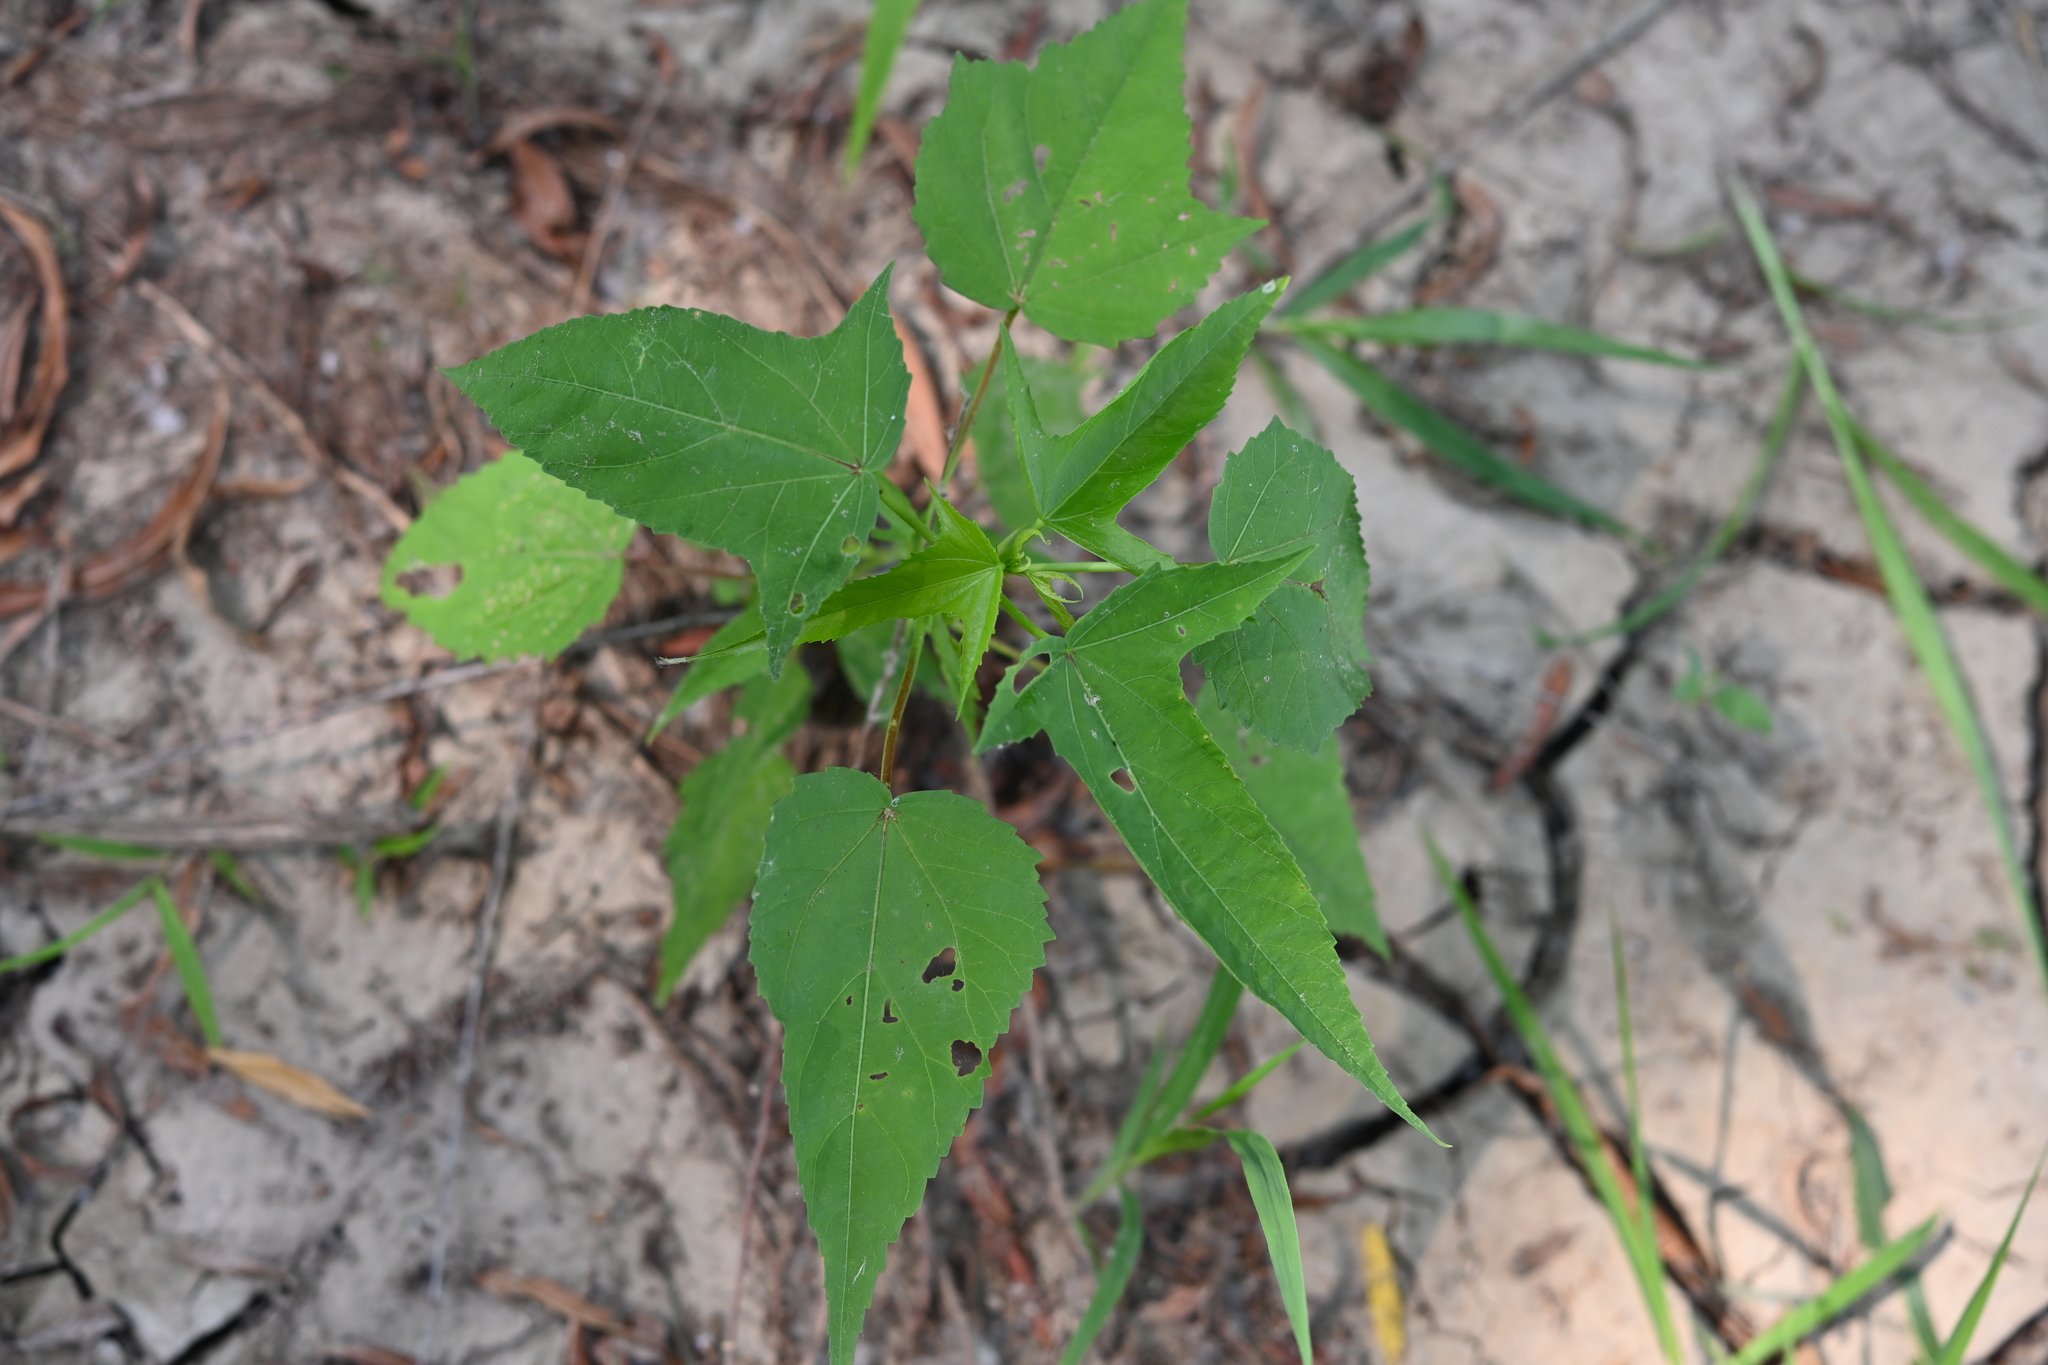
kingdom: Plantae
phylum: Tracheophyta
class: Magnoliopsida
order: Malvales
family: Malvaceae
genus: Hibiscus
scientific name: Hibiscus laevis
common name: Scarlet rose-mallow
